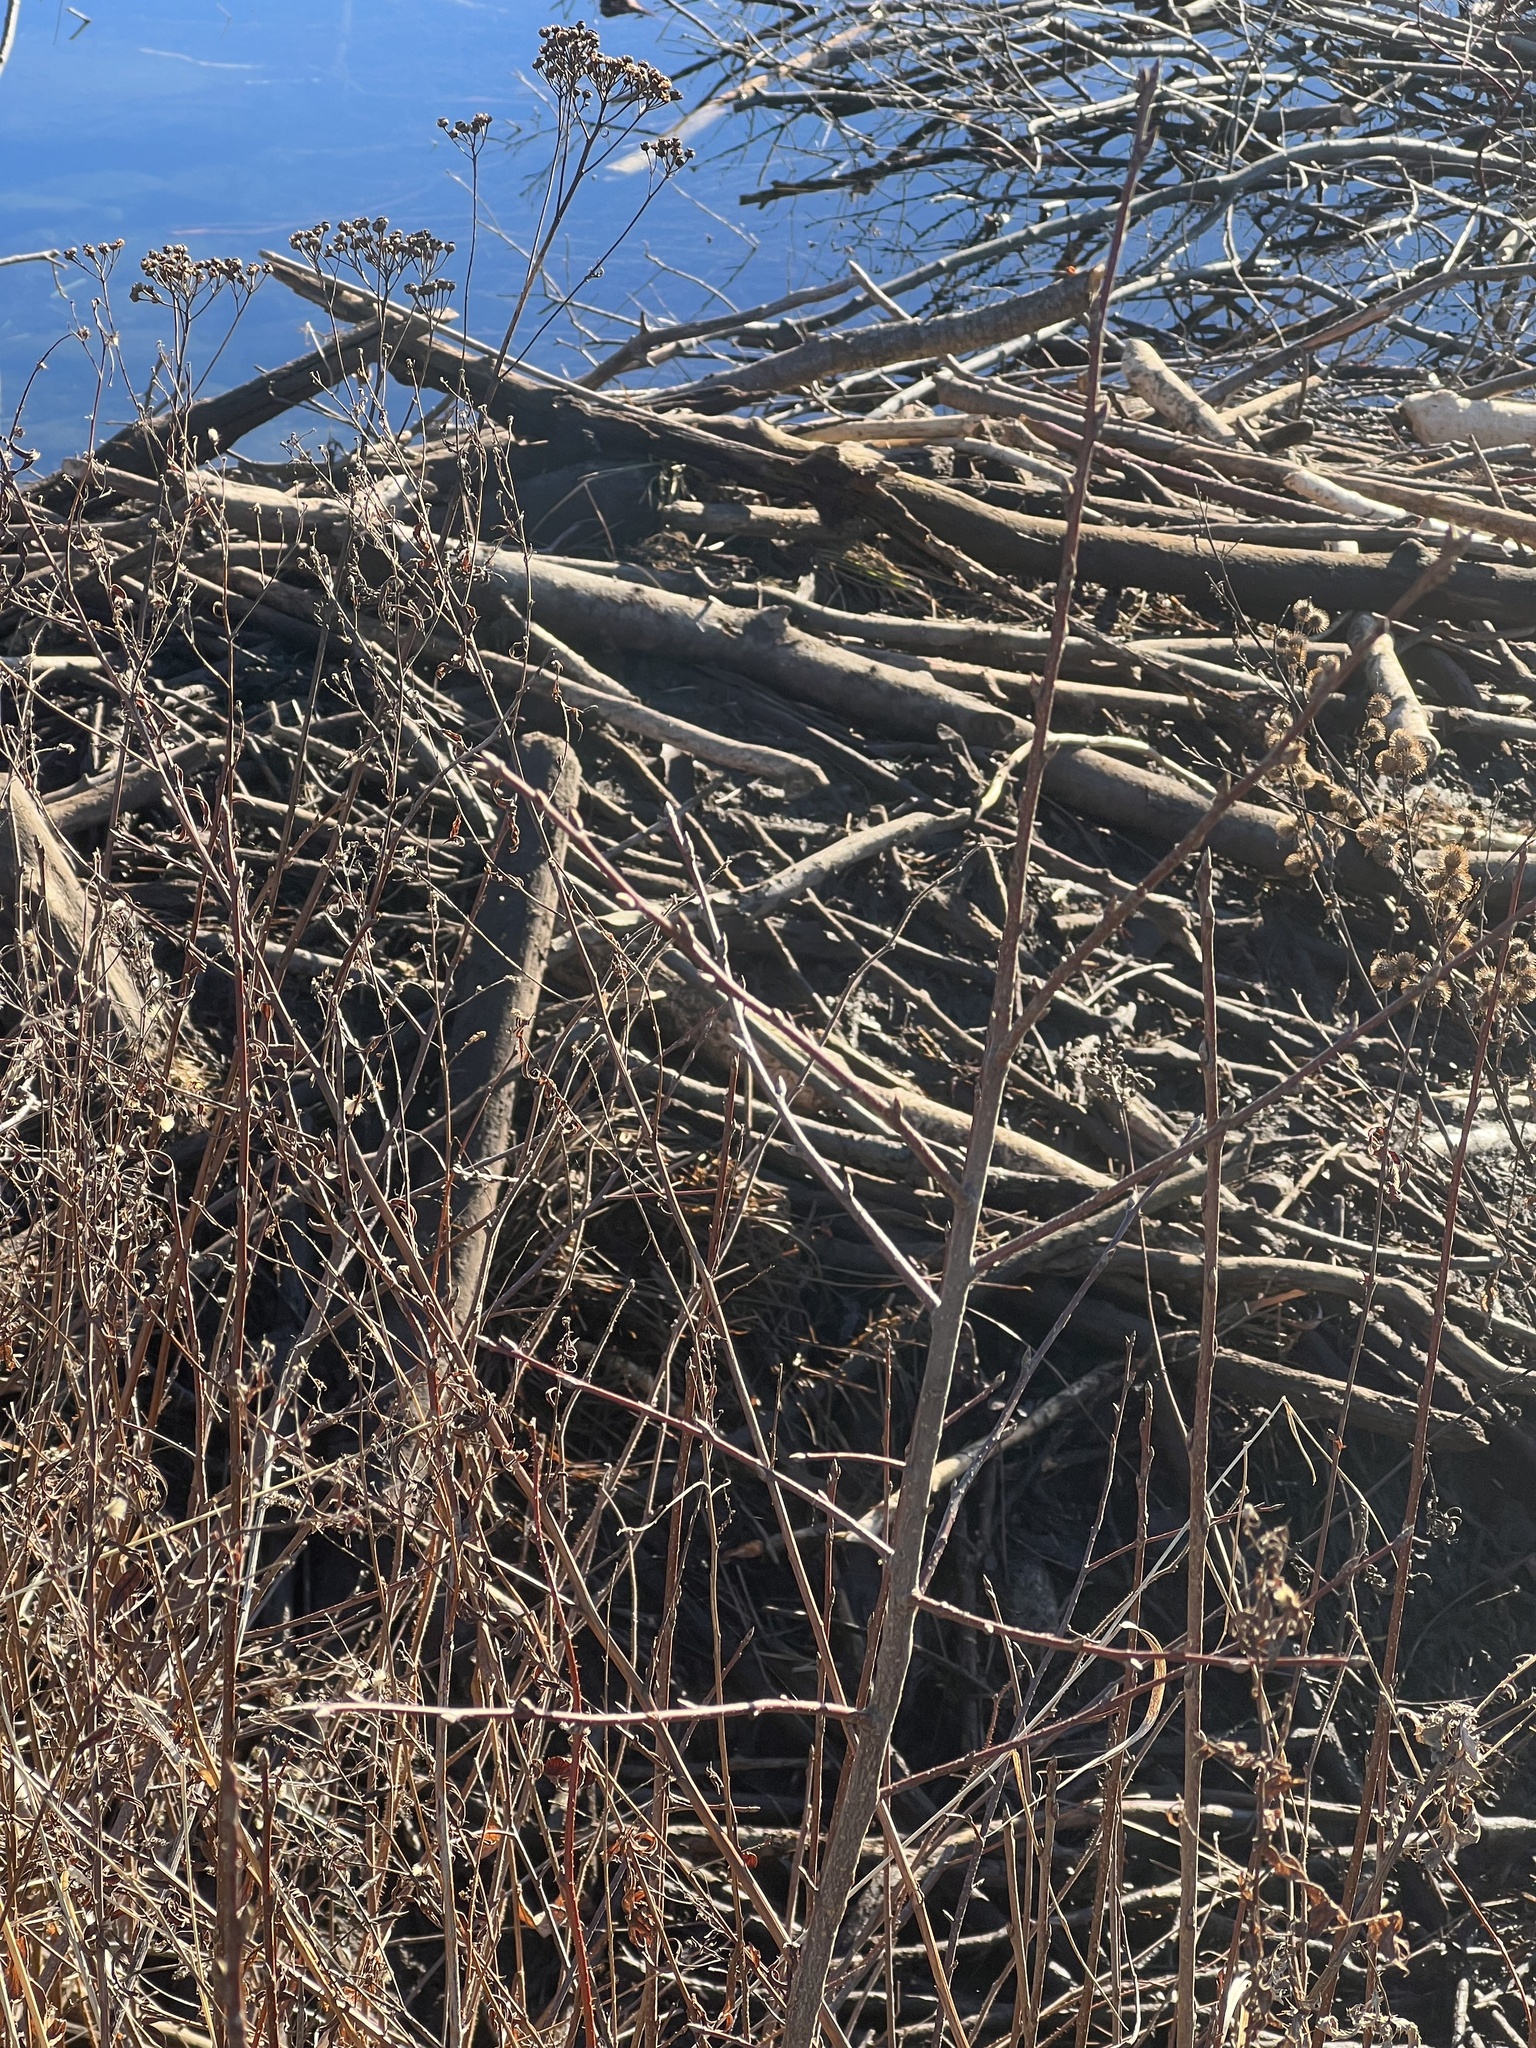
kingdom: Animalia
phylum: Chordata
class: Mammalia
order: Rodentia
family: Castoridae
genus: Castor
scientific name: Castor canadensis
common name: American beaver
